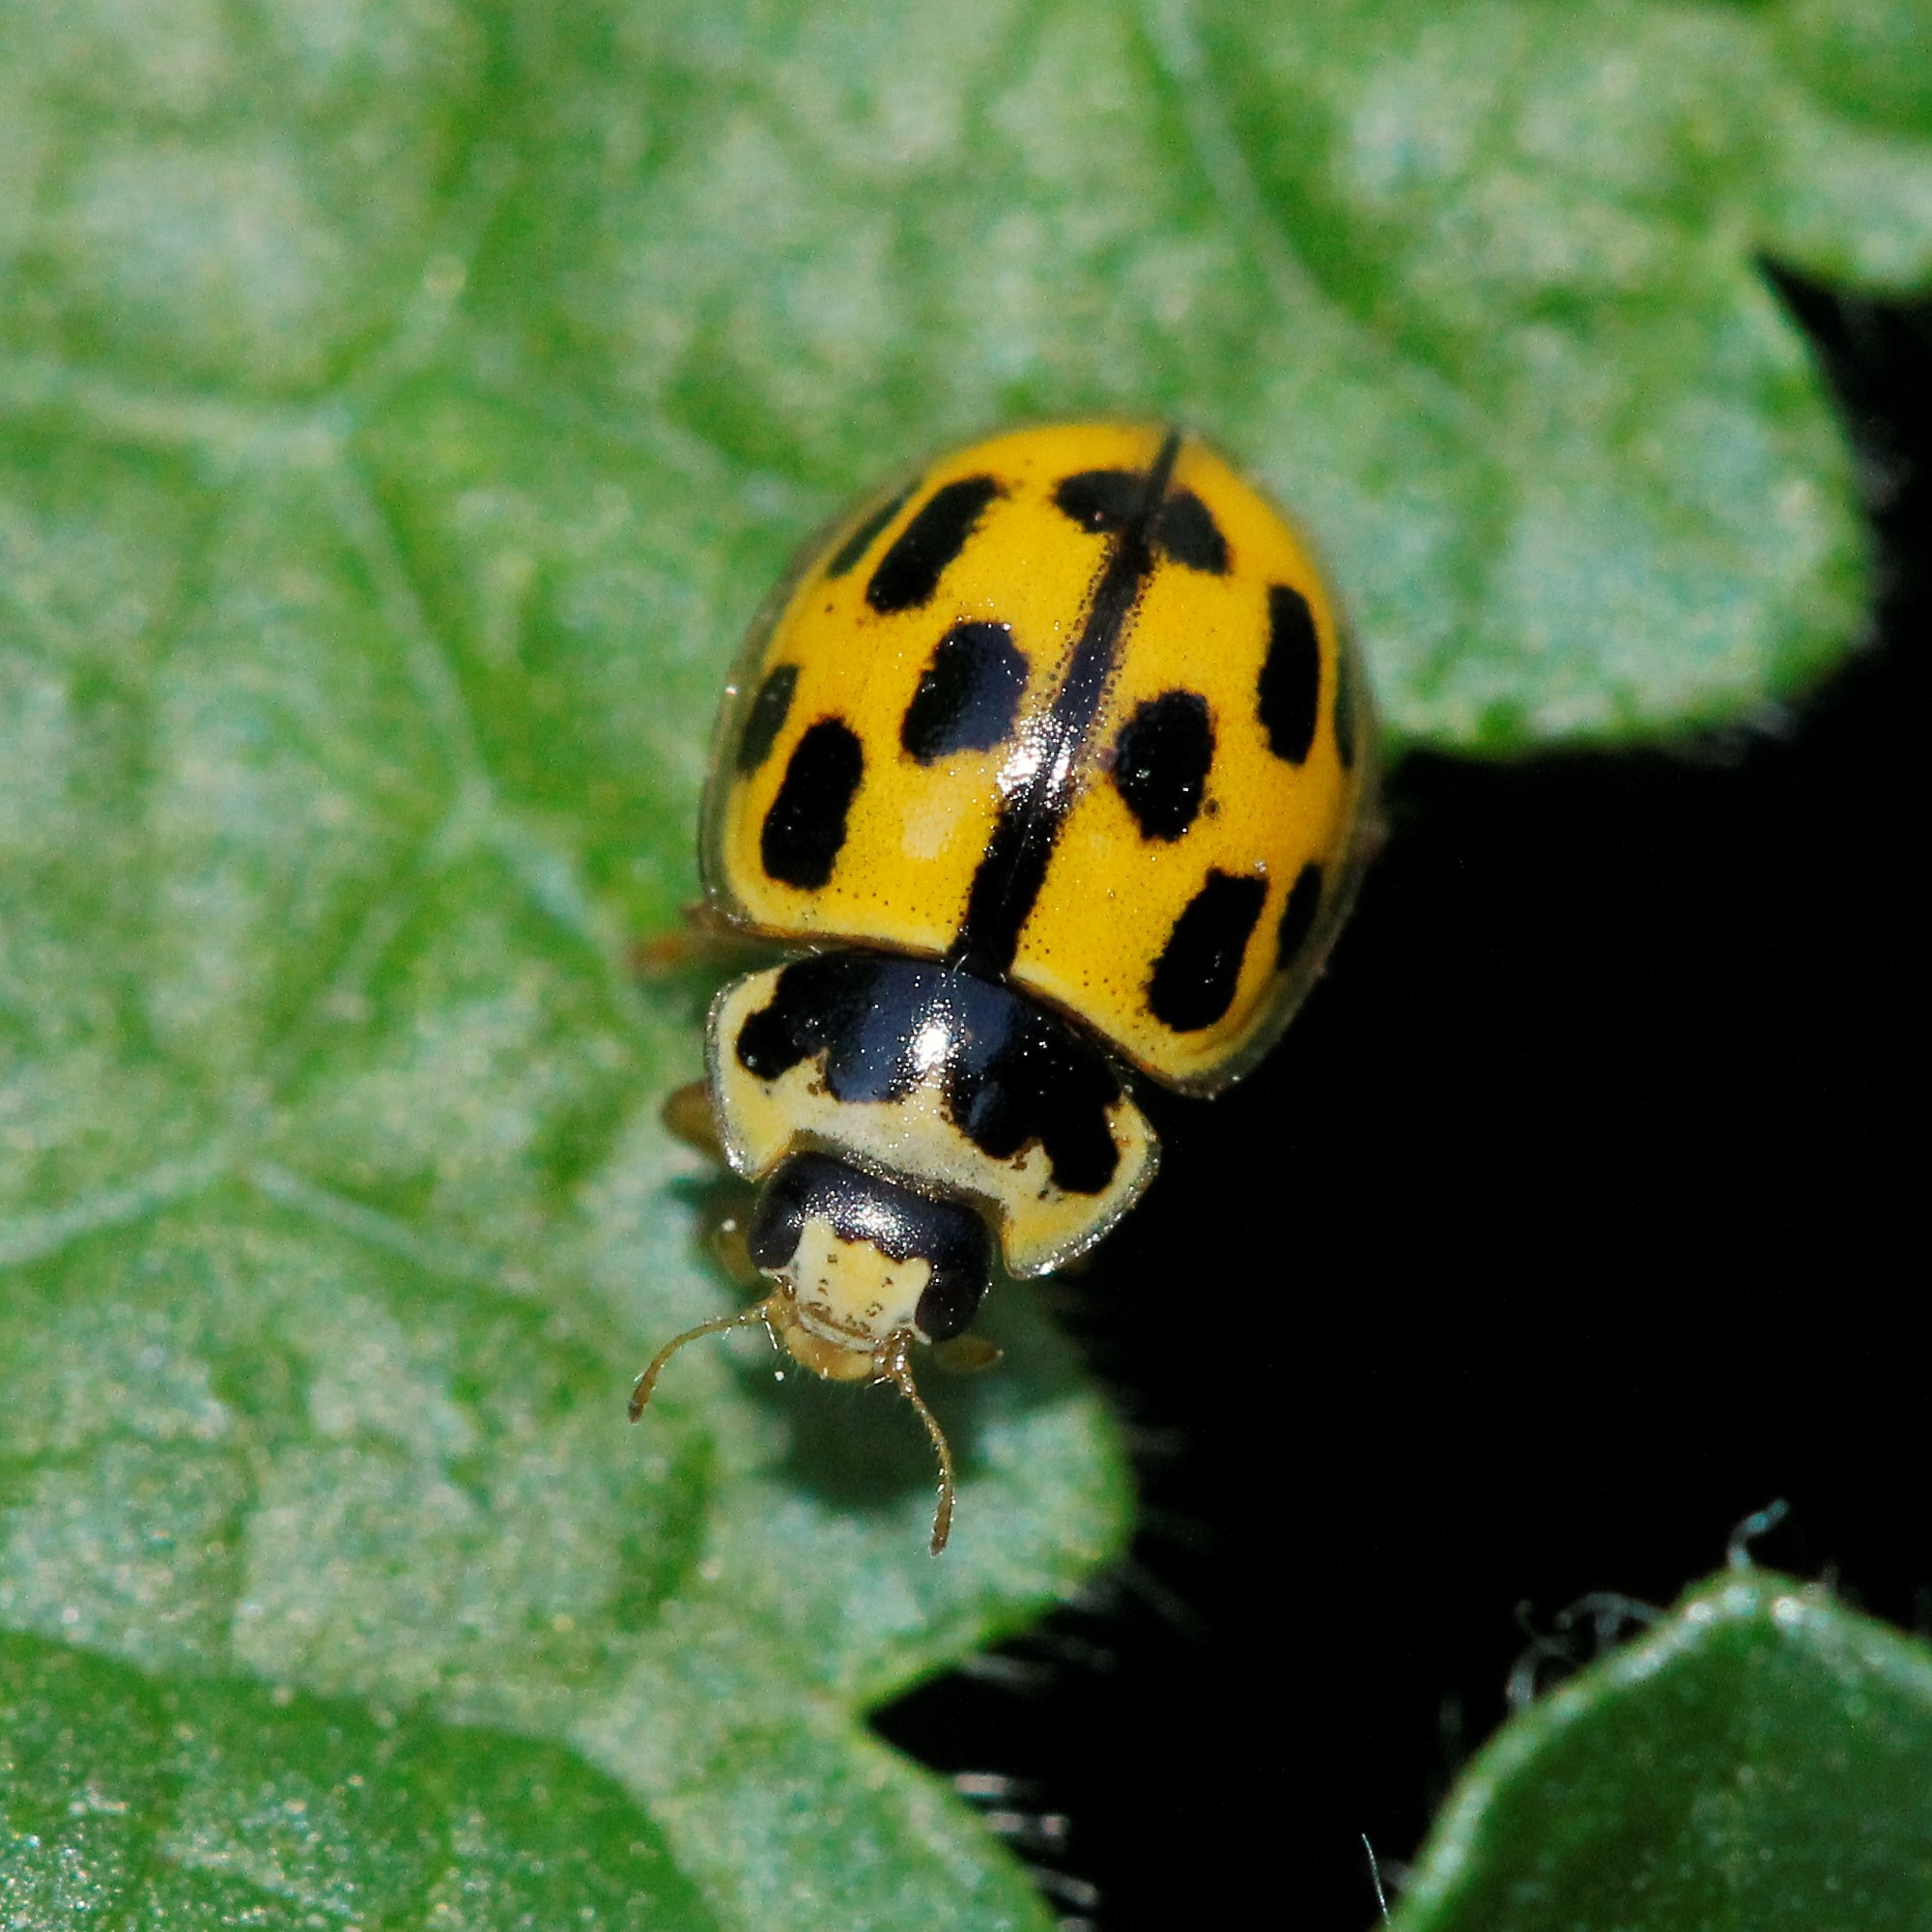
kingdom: Animalia
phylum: Arthropoda
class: Insecta
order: Coleoptera
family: Coccinellidae
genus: Propylaea
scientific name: Propylaea quatuordecimpunctata
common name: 14-spotted ladybird beetle
